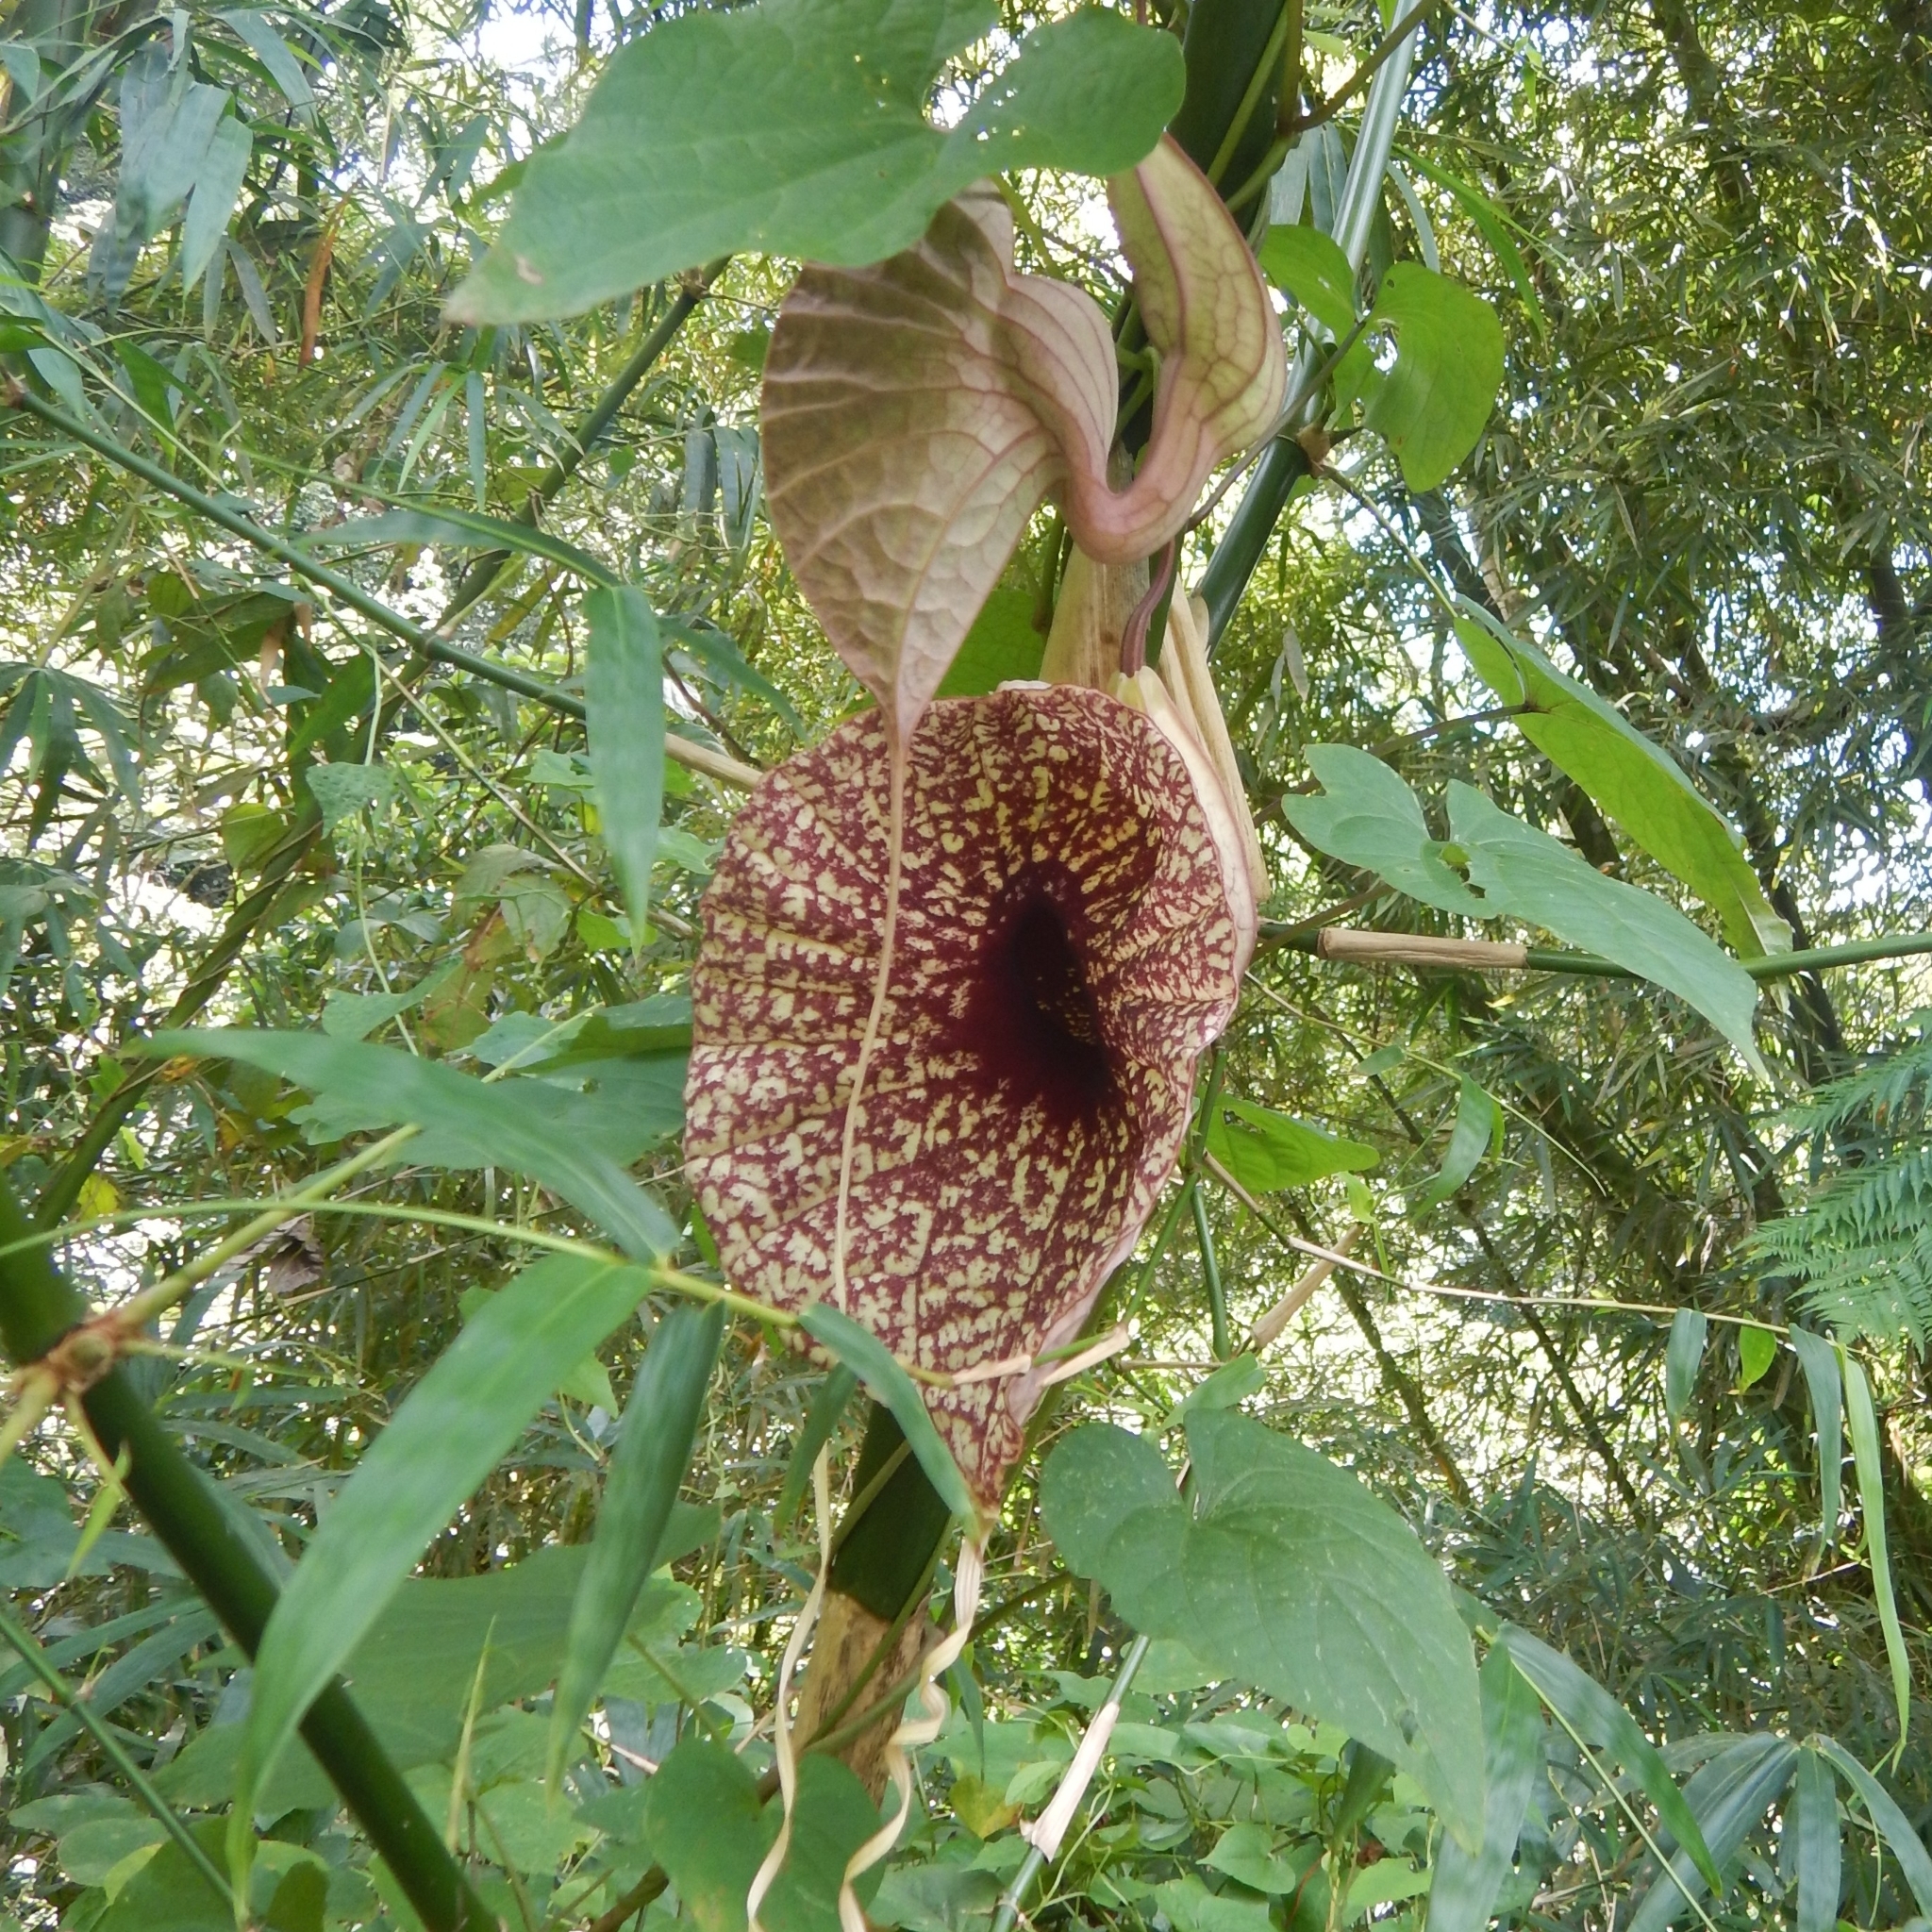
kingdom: Plantae
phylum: Tracheophyta
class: Magnoliopsida
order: Piperales
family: Aristolochiaceae
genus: Aristolochia
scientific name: Aristolochia grandiflora
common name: Pelicanflower
